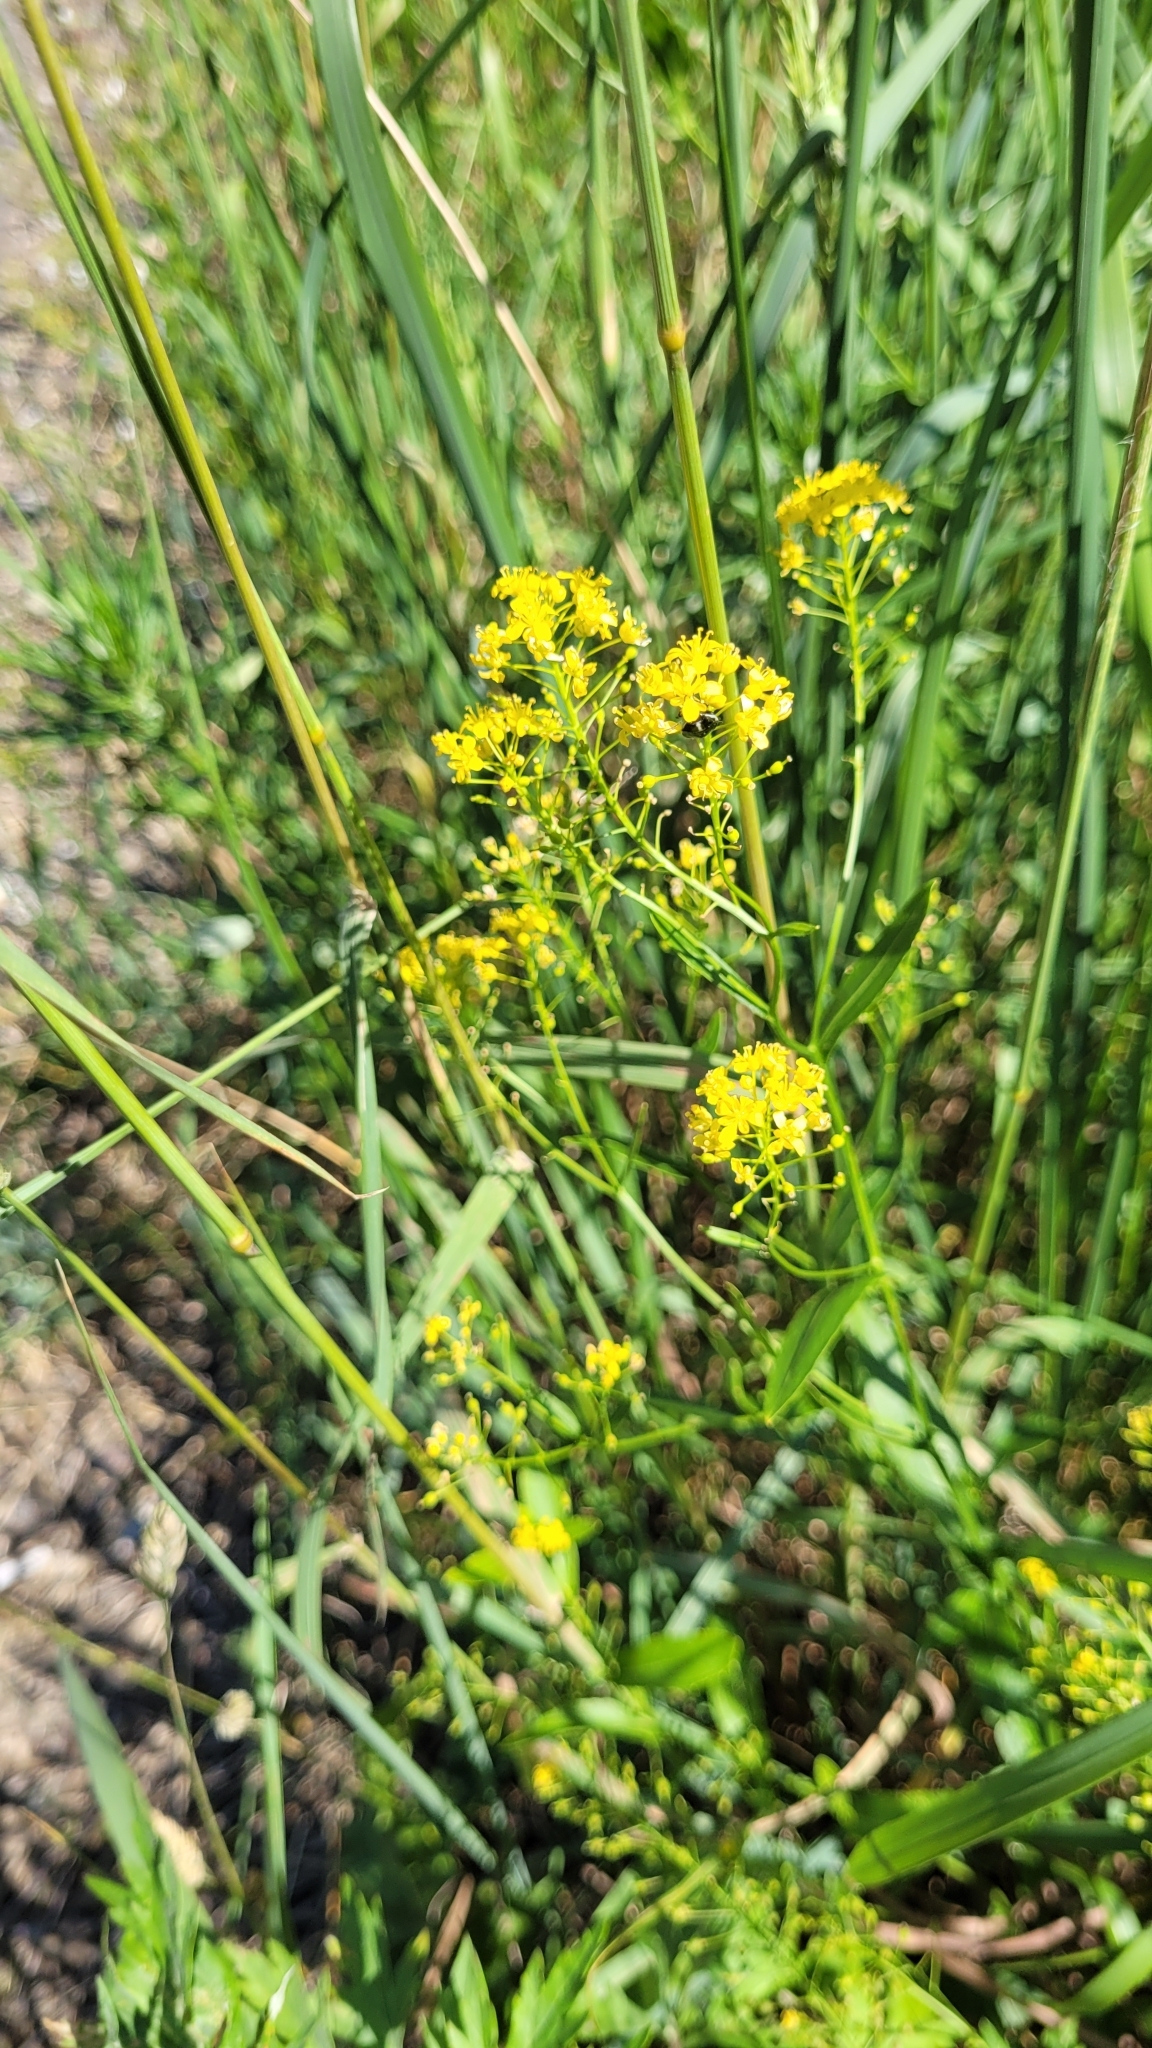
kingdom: Plantae
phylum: Tracheophyta
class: Magnoliopsida
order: Brassicales
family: Brassicaceae
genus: Rorippa
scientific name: Rorippa austriaca
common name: Austrian yellow-cress
